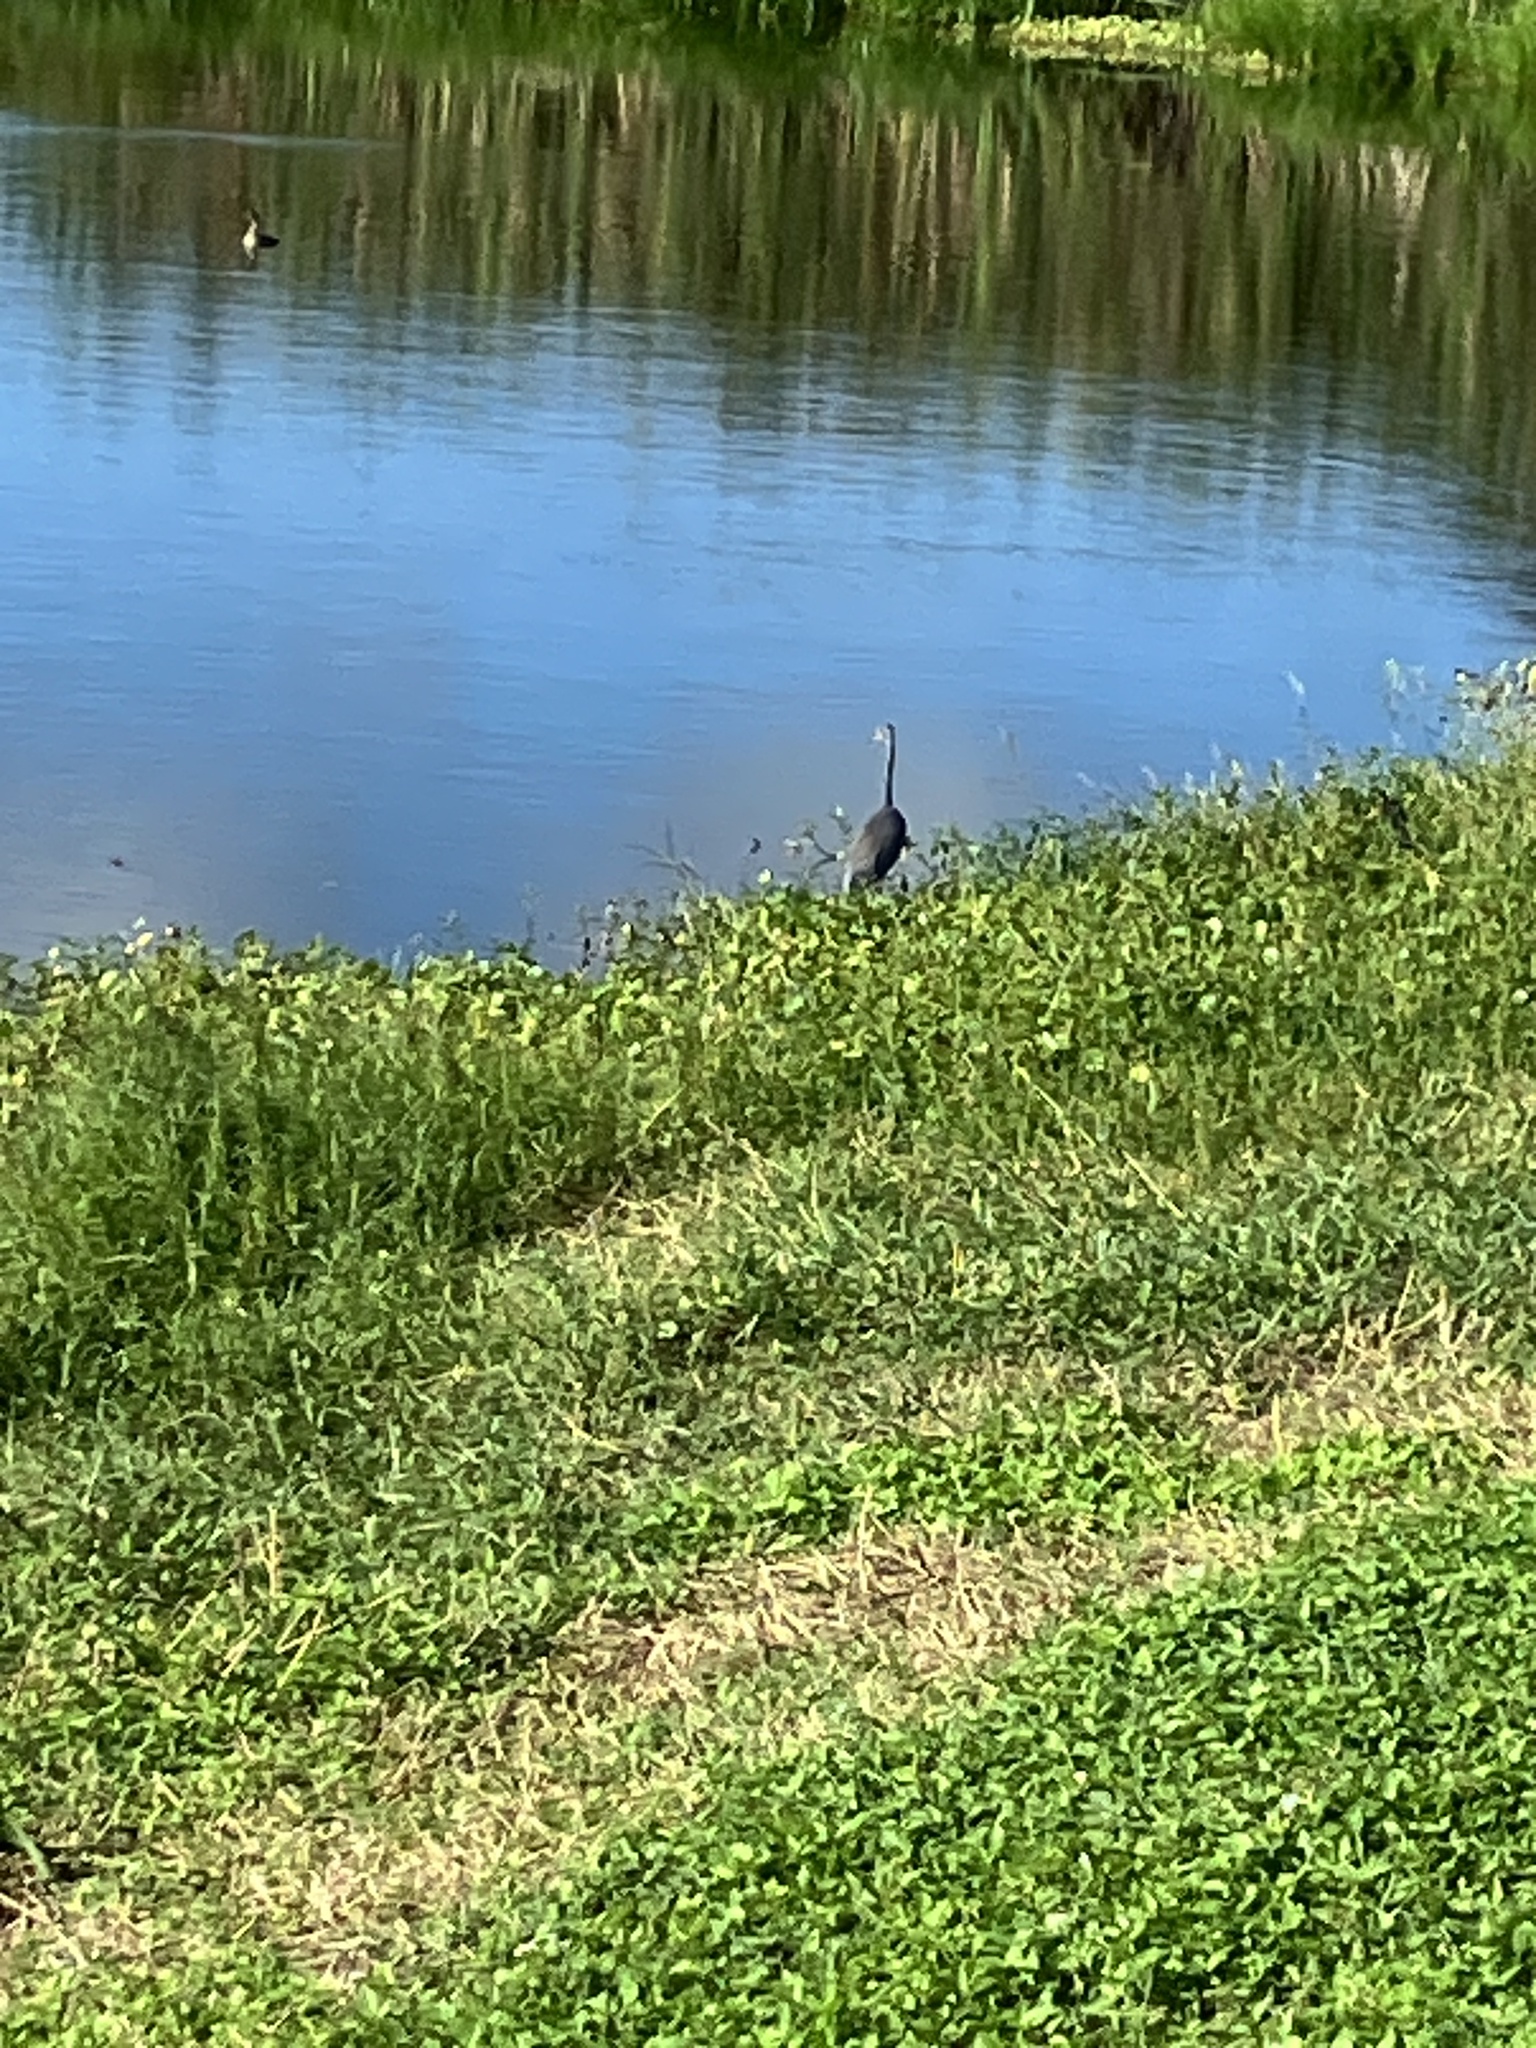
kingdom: Animalia
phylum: Chordata
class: Aves
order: Pelecaniformes
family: Ardeidae
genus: Egretta
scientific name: Egretta tricolor
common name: Tricolored heron
